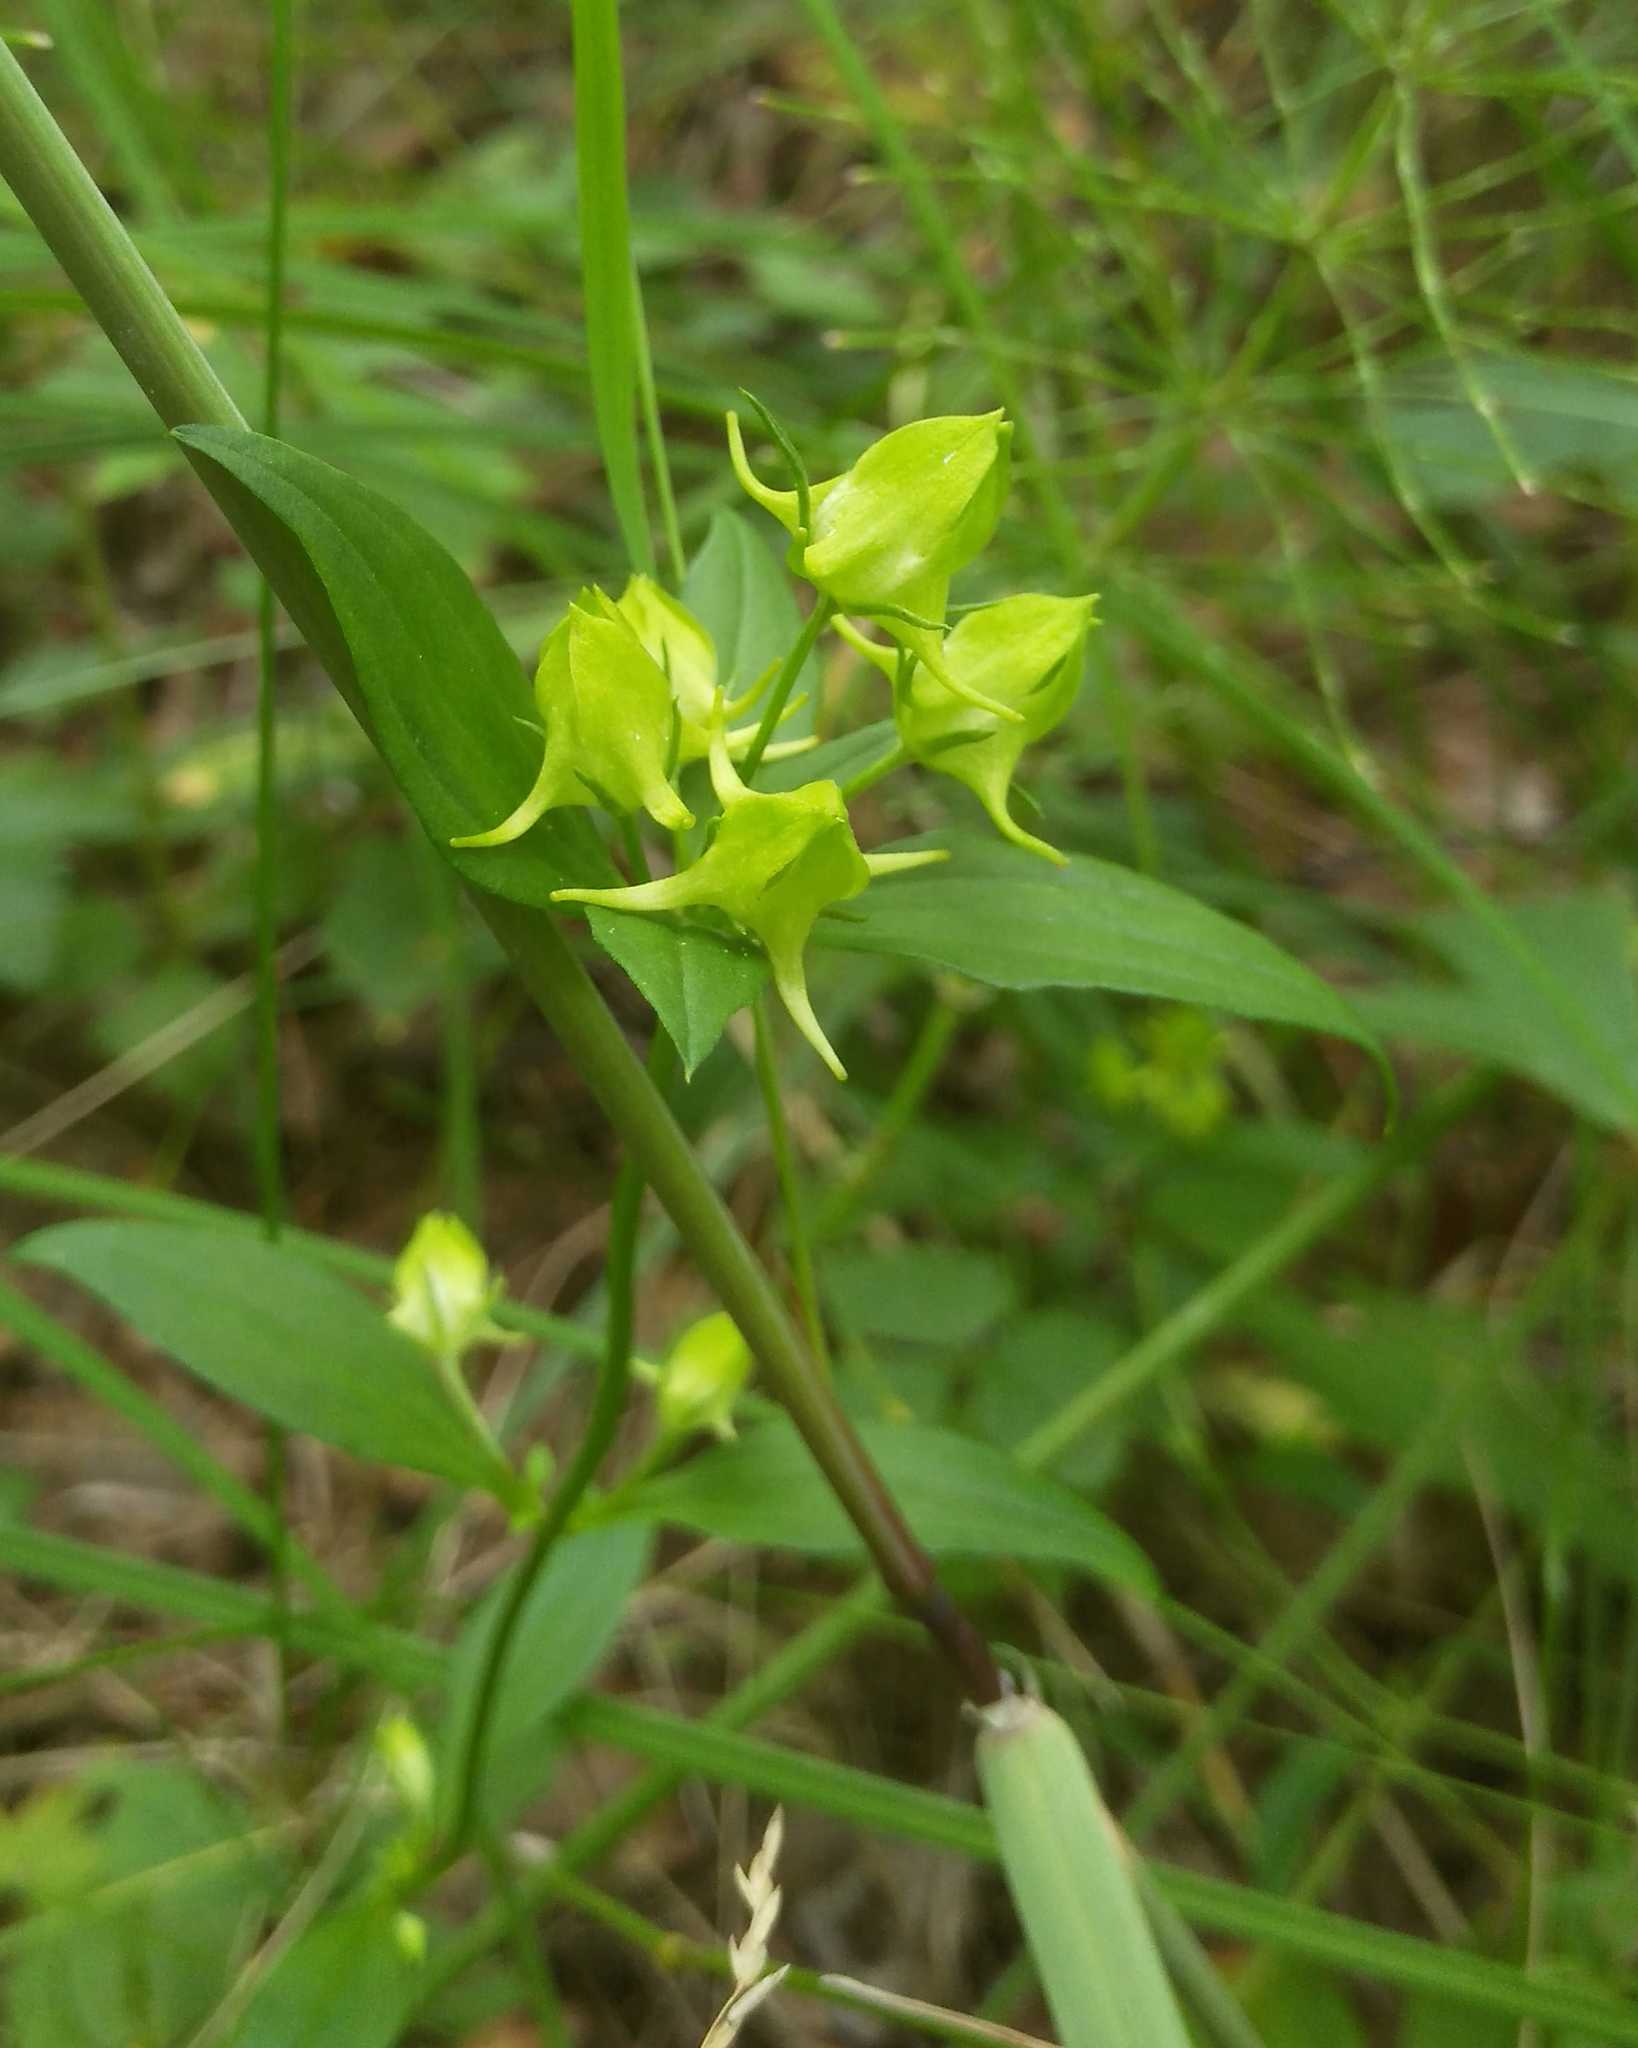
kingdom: Plantae
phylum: Tracheophyta
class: Magnoliopsida
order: Gentianales
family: Gentianaceae
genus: Halenia
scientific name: Halenia corniculata
